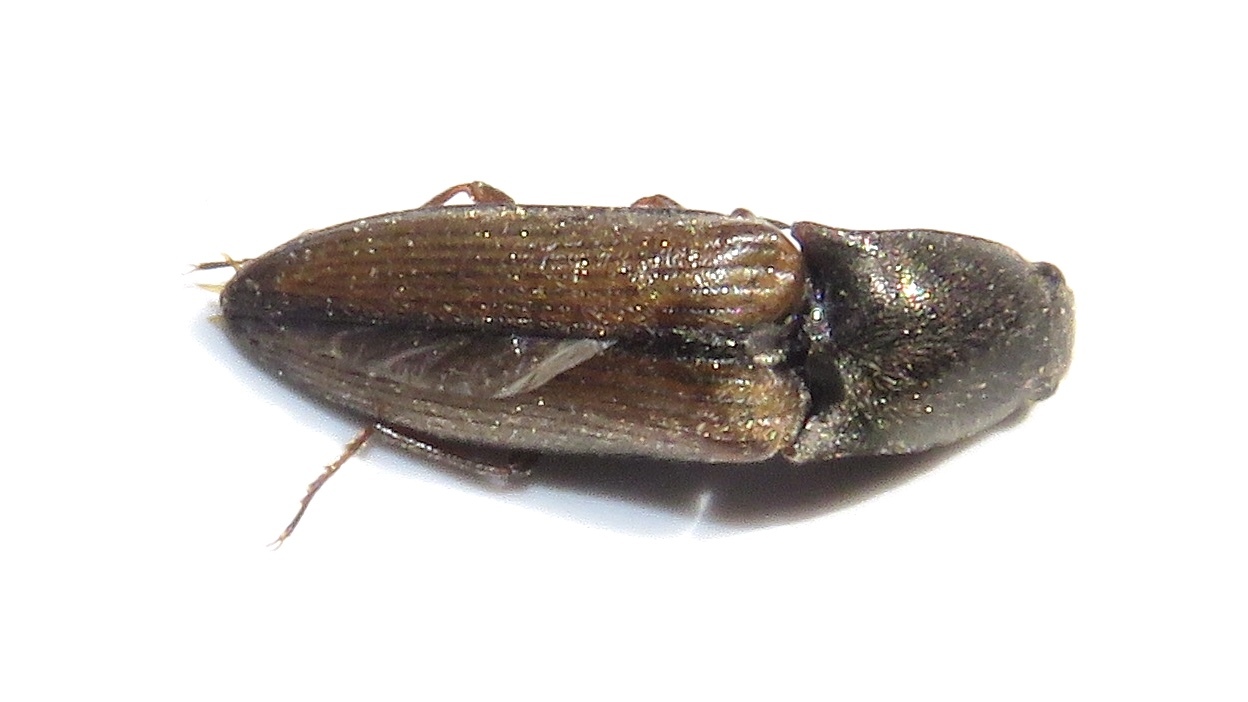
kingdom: Animalia
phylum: Arthropoda
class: Insecta
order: Coleoptera
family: Elateridae
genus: Corymbitodes
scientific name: Corymbitodes tarsalis
